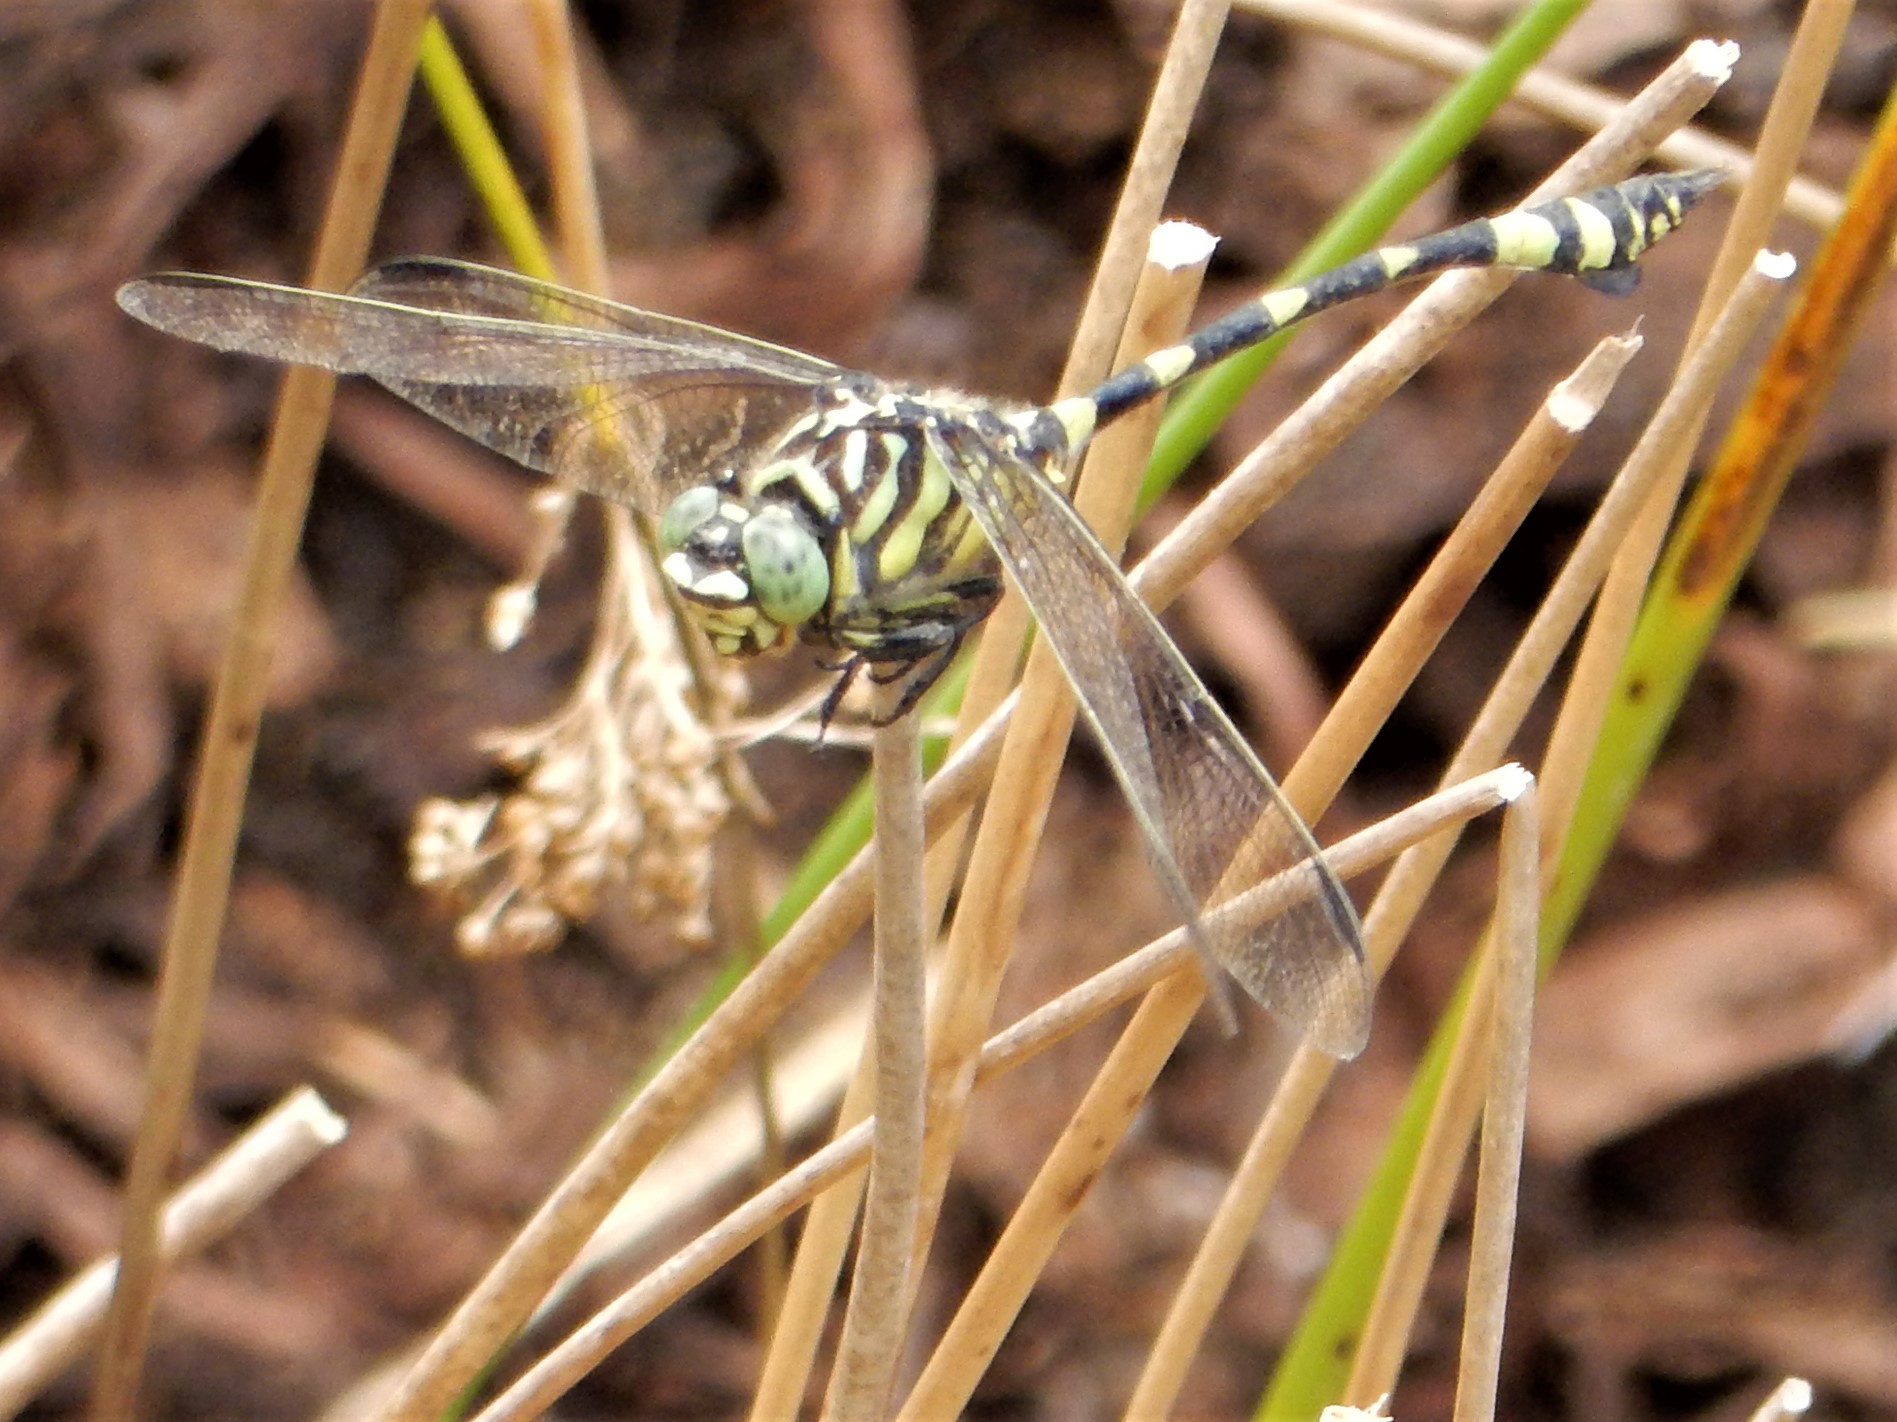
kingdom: Animalia
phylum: Arthropoda
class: Insecta
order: Odonata
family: Gomphidae
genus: Ictinogomphus
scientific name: Ictinogomphus australis
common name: Australian tiger
